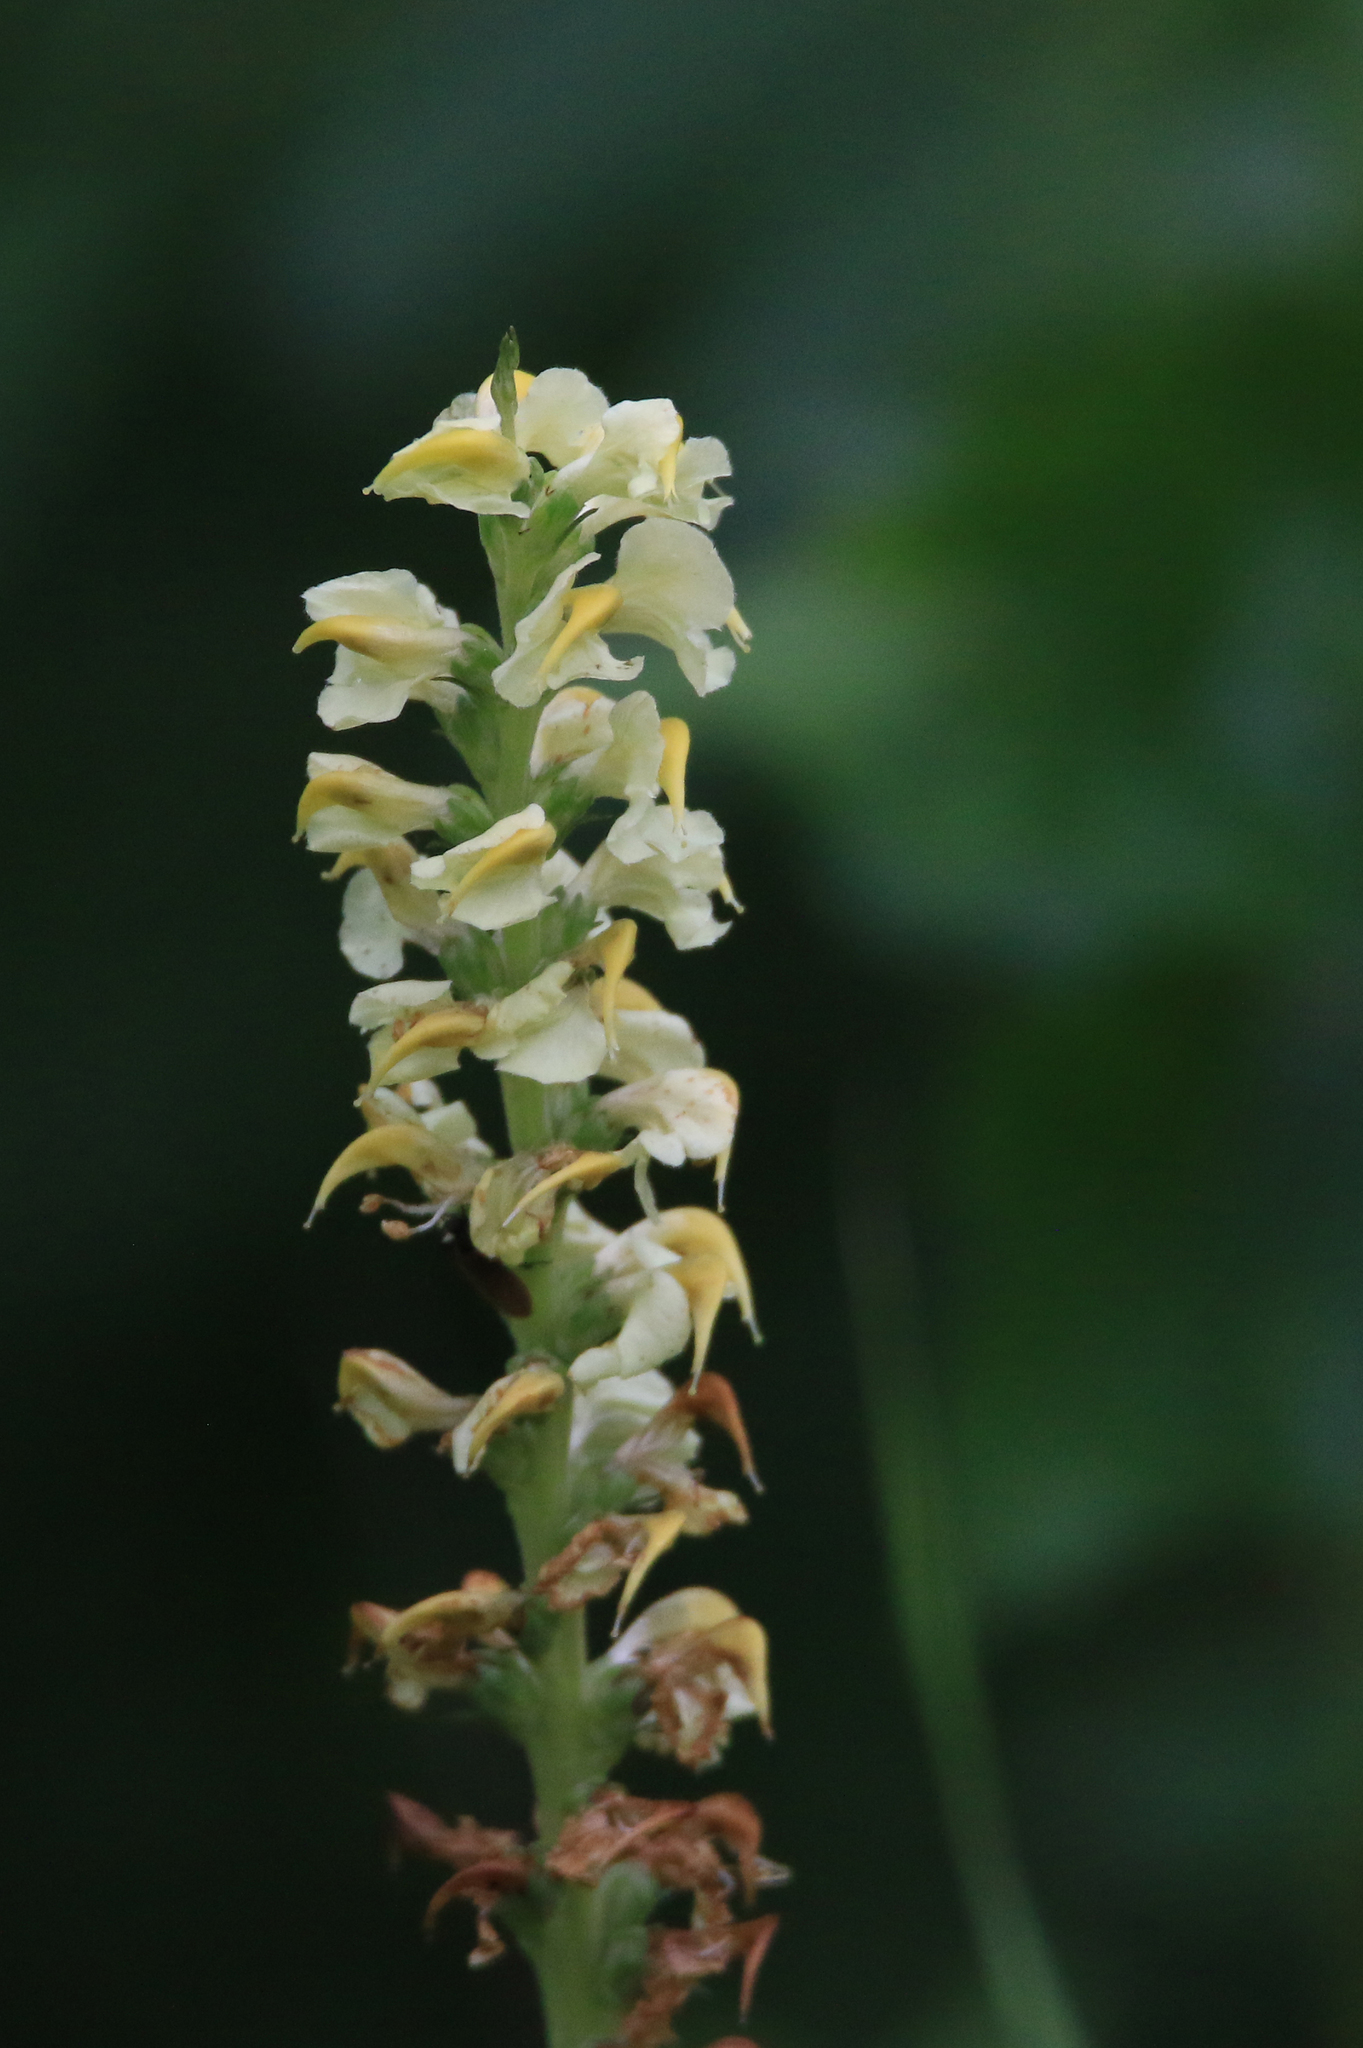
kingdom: Plantae
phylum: Tracheophyta
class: Magnoliopsida
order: Lamiales
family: Orobanchaceae
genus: Pedicularis
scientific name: Pedicularis incarnata
